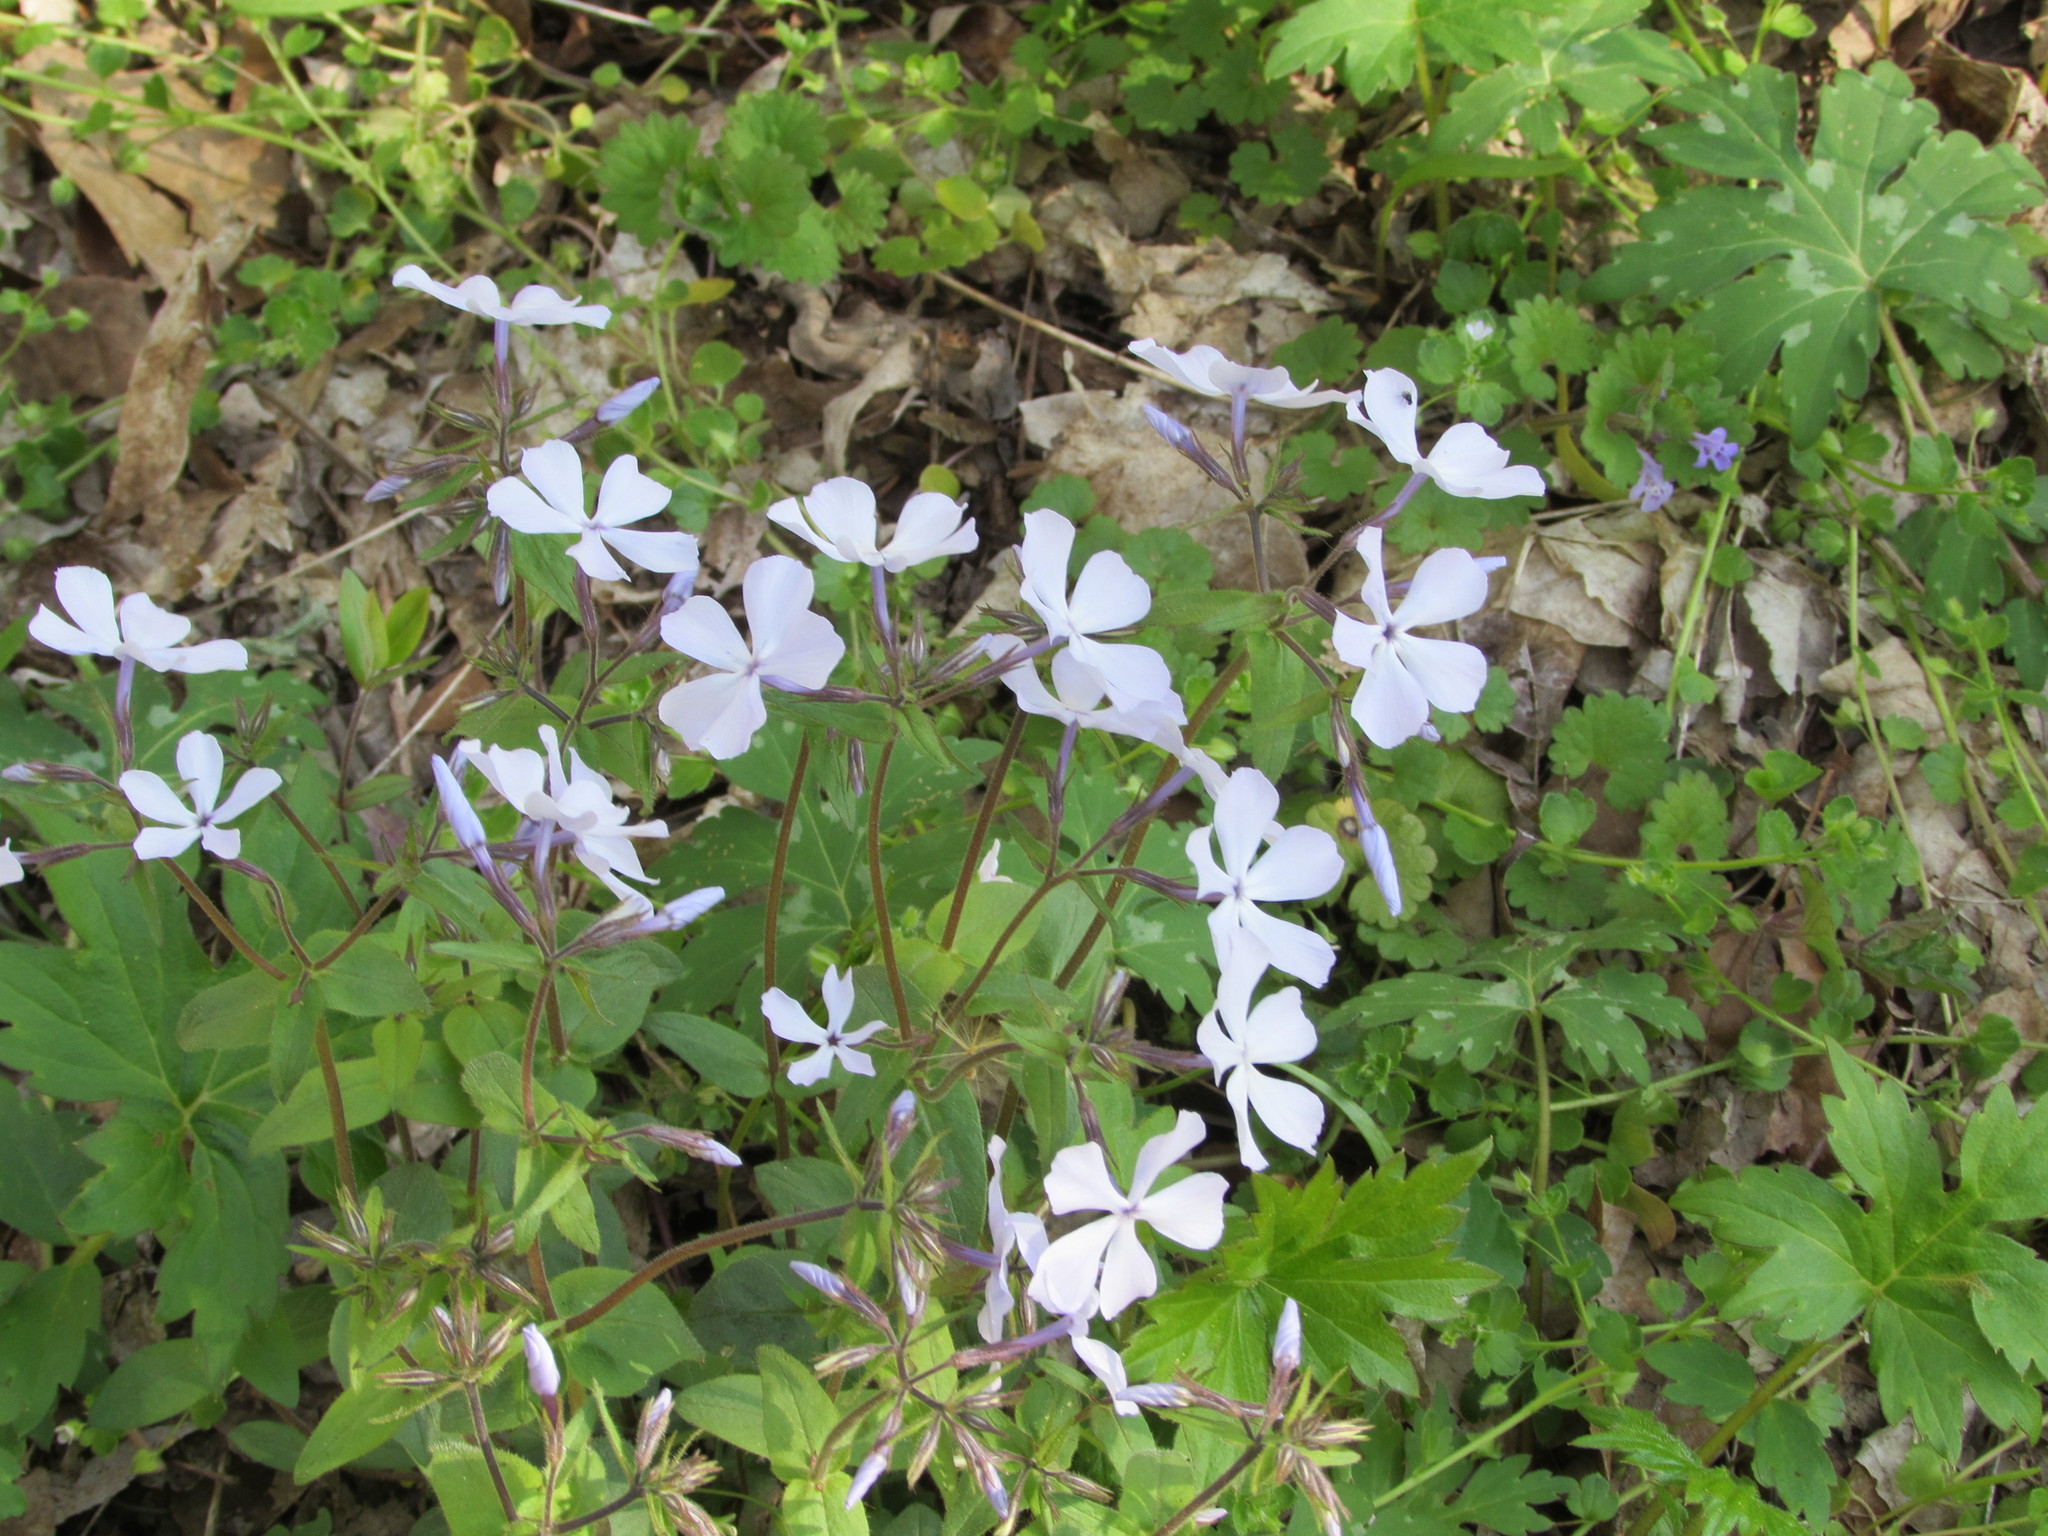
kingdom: Plantae
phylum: Tracheophyta
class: Magnoliopsida
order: Ericales
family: Polemoniaceae
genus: Phlox
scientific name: Phlox divaricata
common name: Blue phlox
